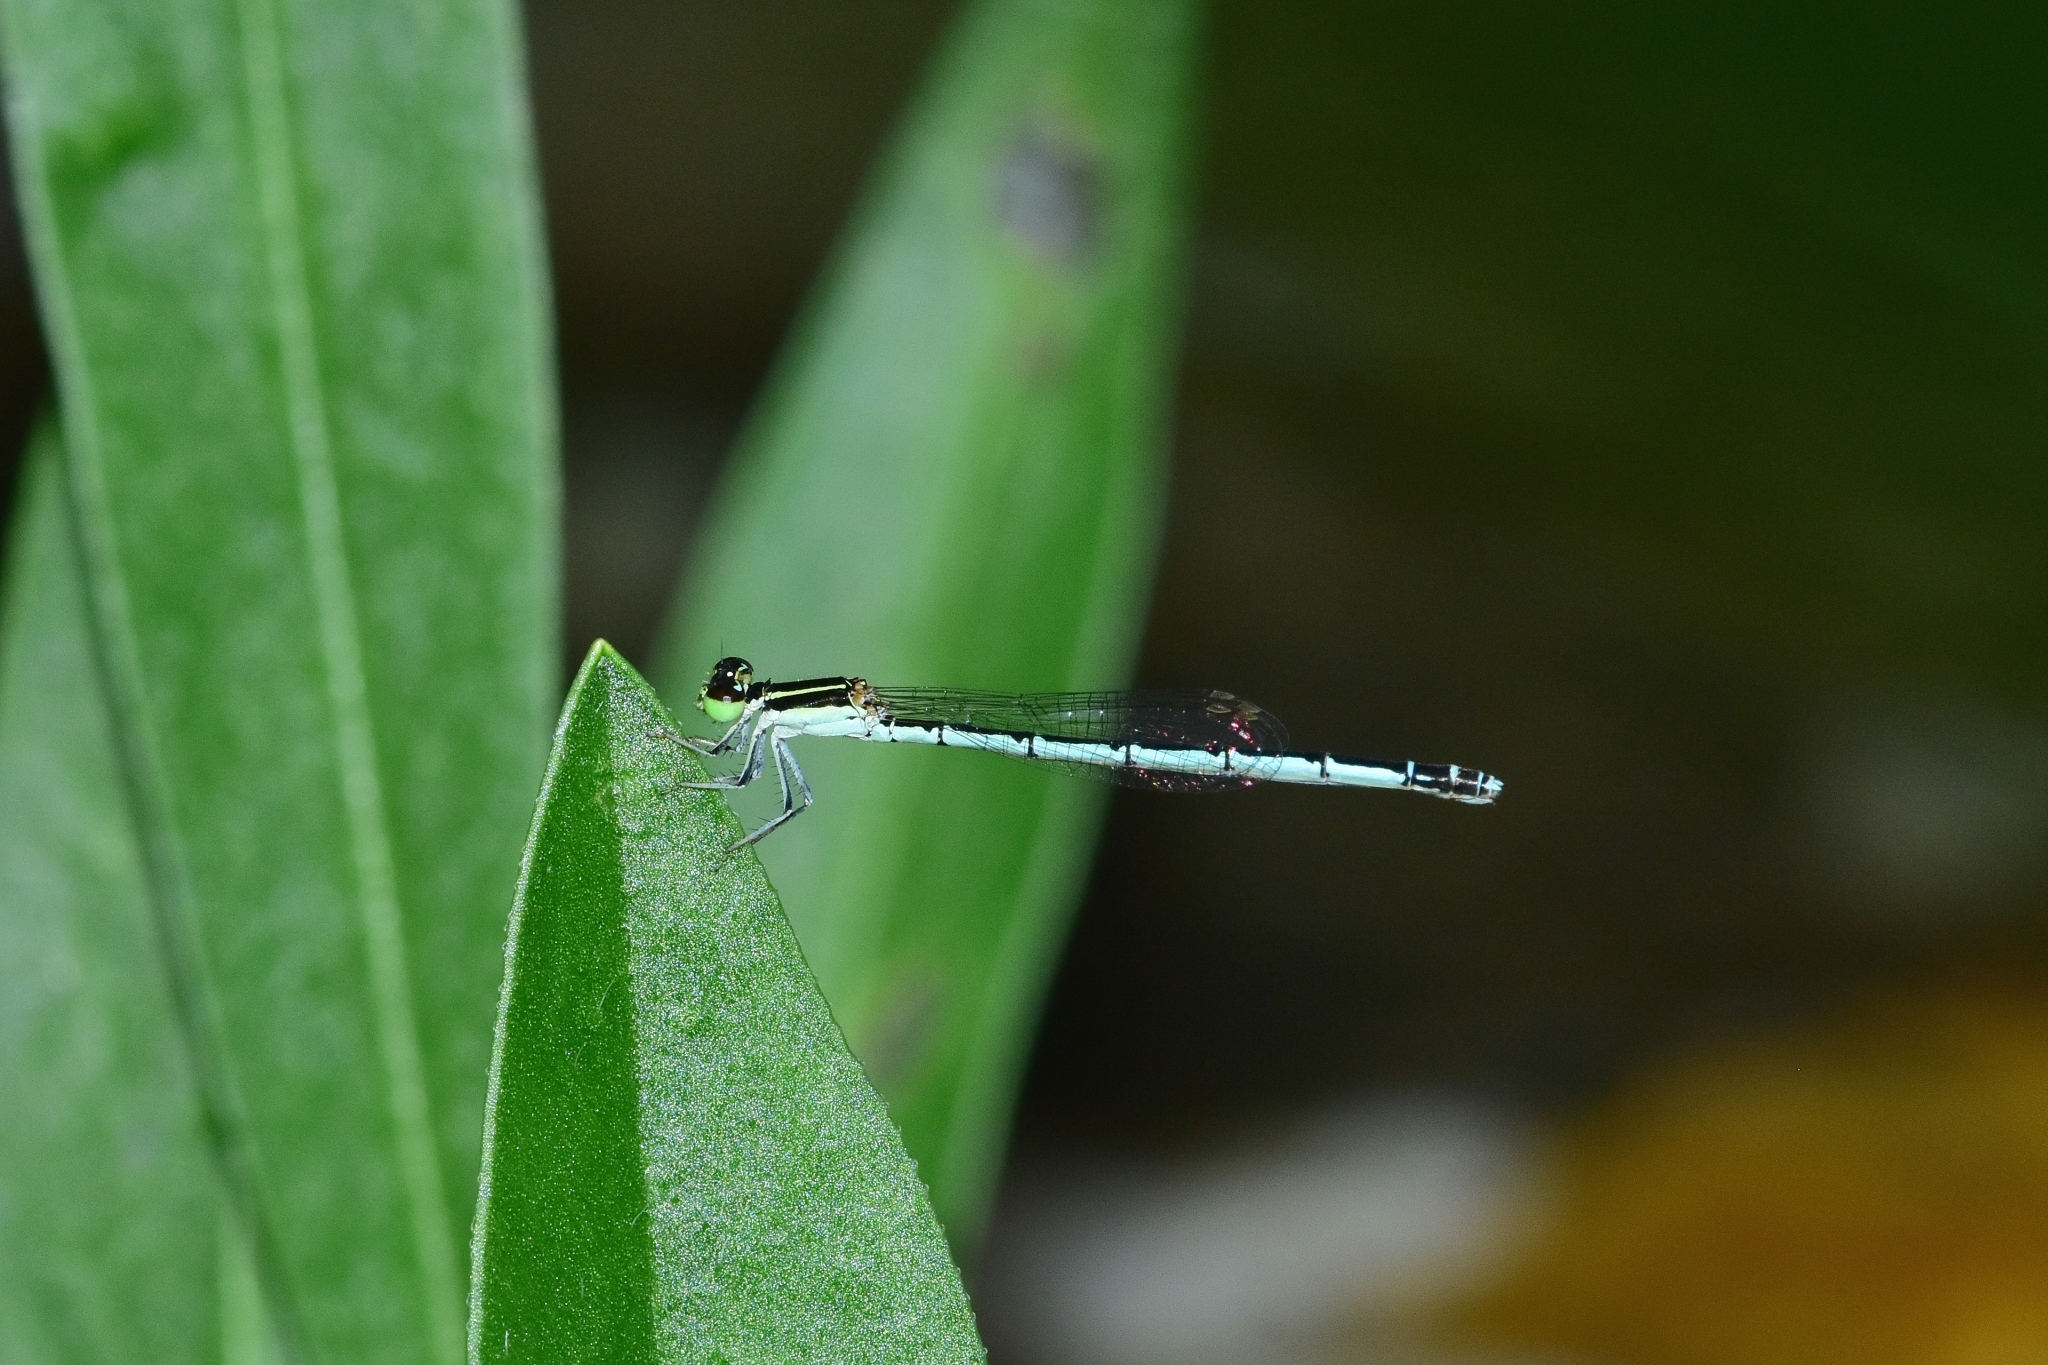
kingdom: Animalia
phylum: Arthropoda
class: Insecta
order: Odonata
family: Coenagrionidae
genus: Agriocnemis
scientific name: Agriocnemis pieris
